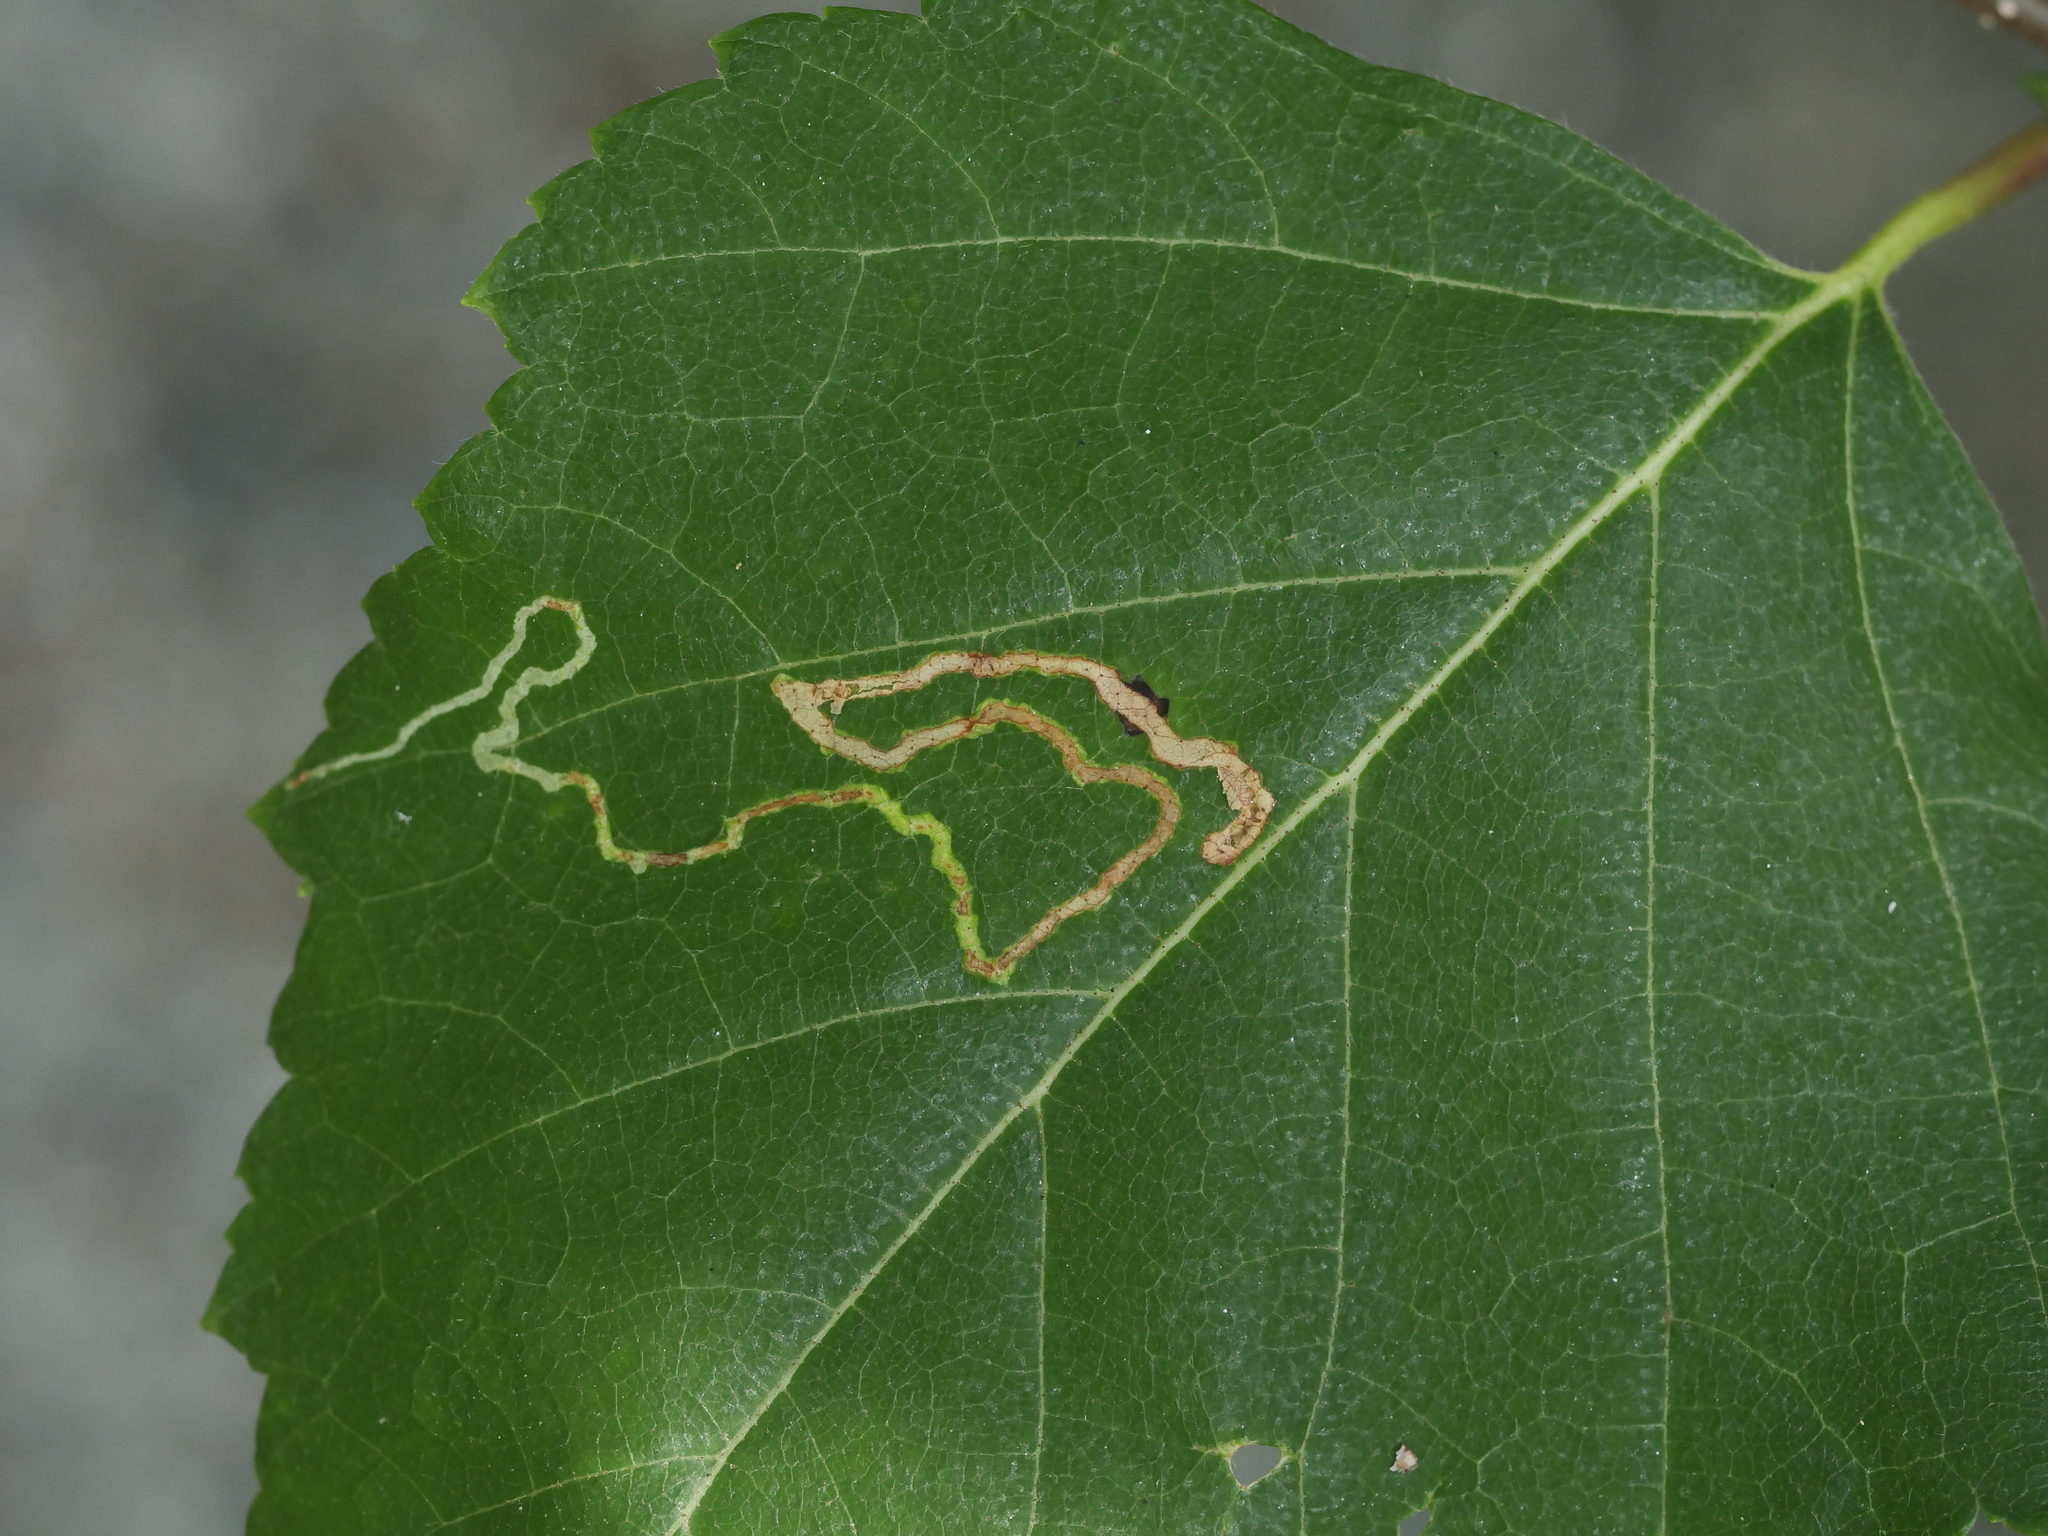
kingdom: Animalia
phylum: Arthropoda
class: Insecta
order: Diptera
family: Agromyzidae
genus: Agromyza
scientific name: Agromyza alnibetulae
